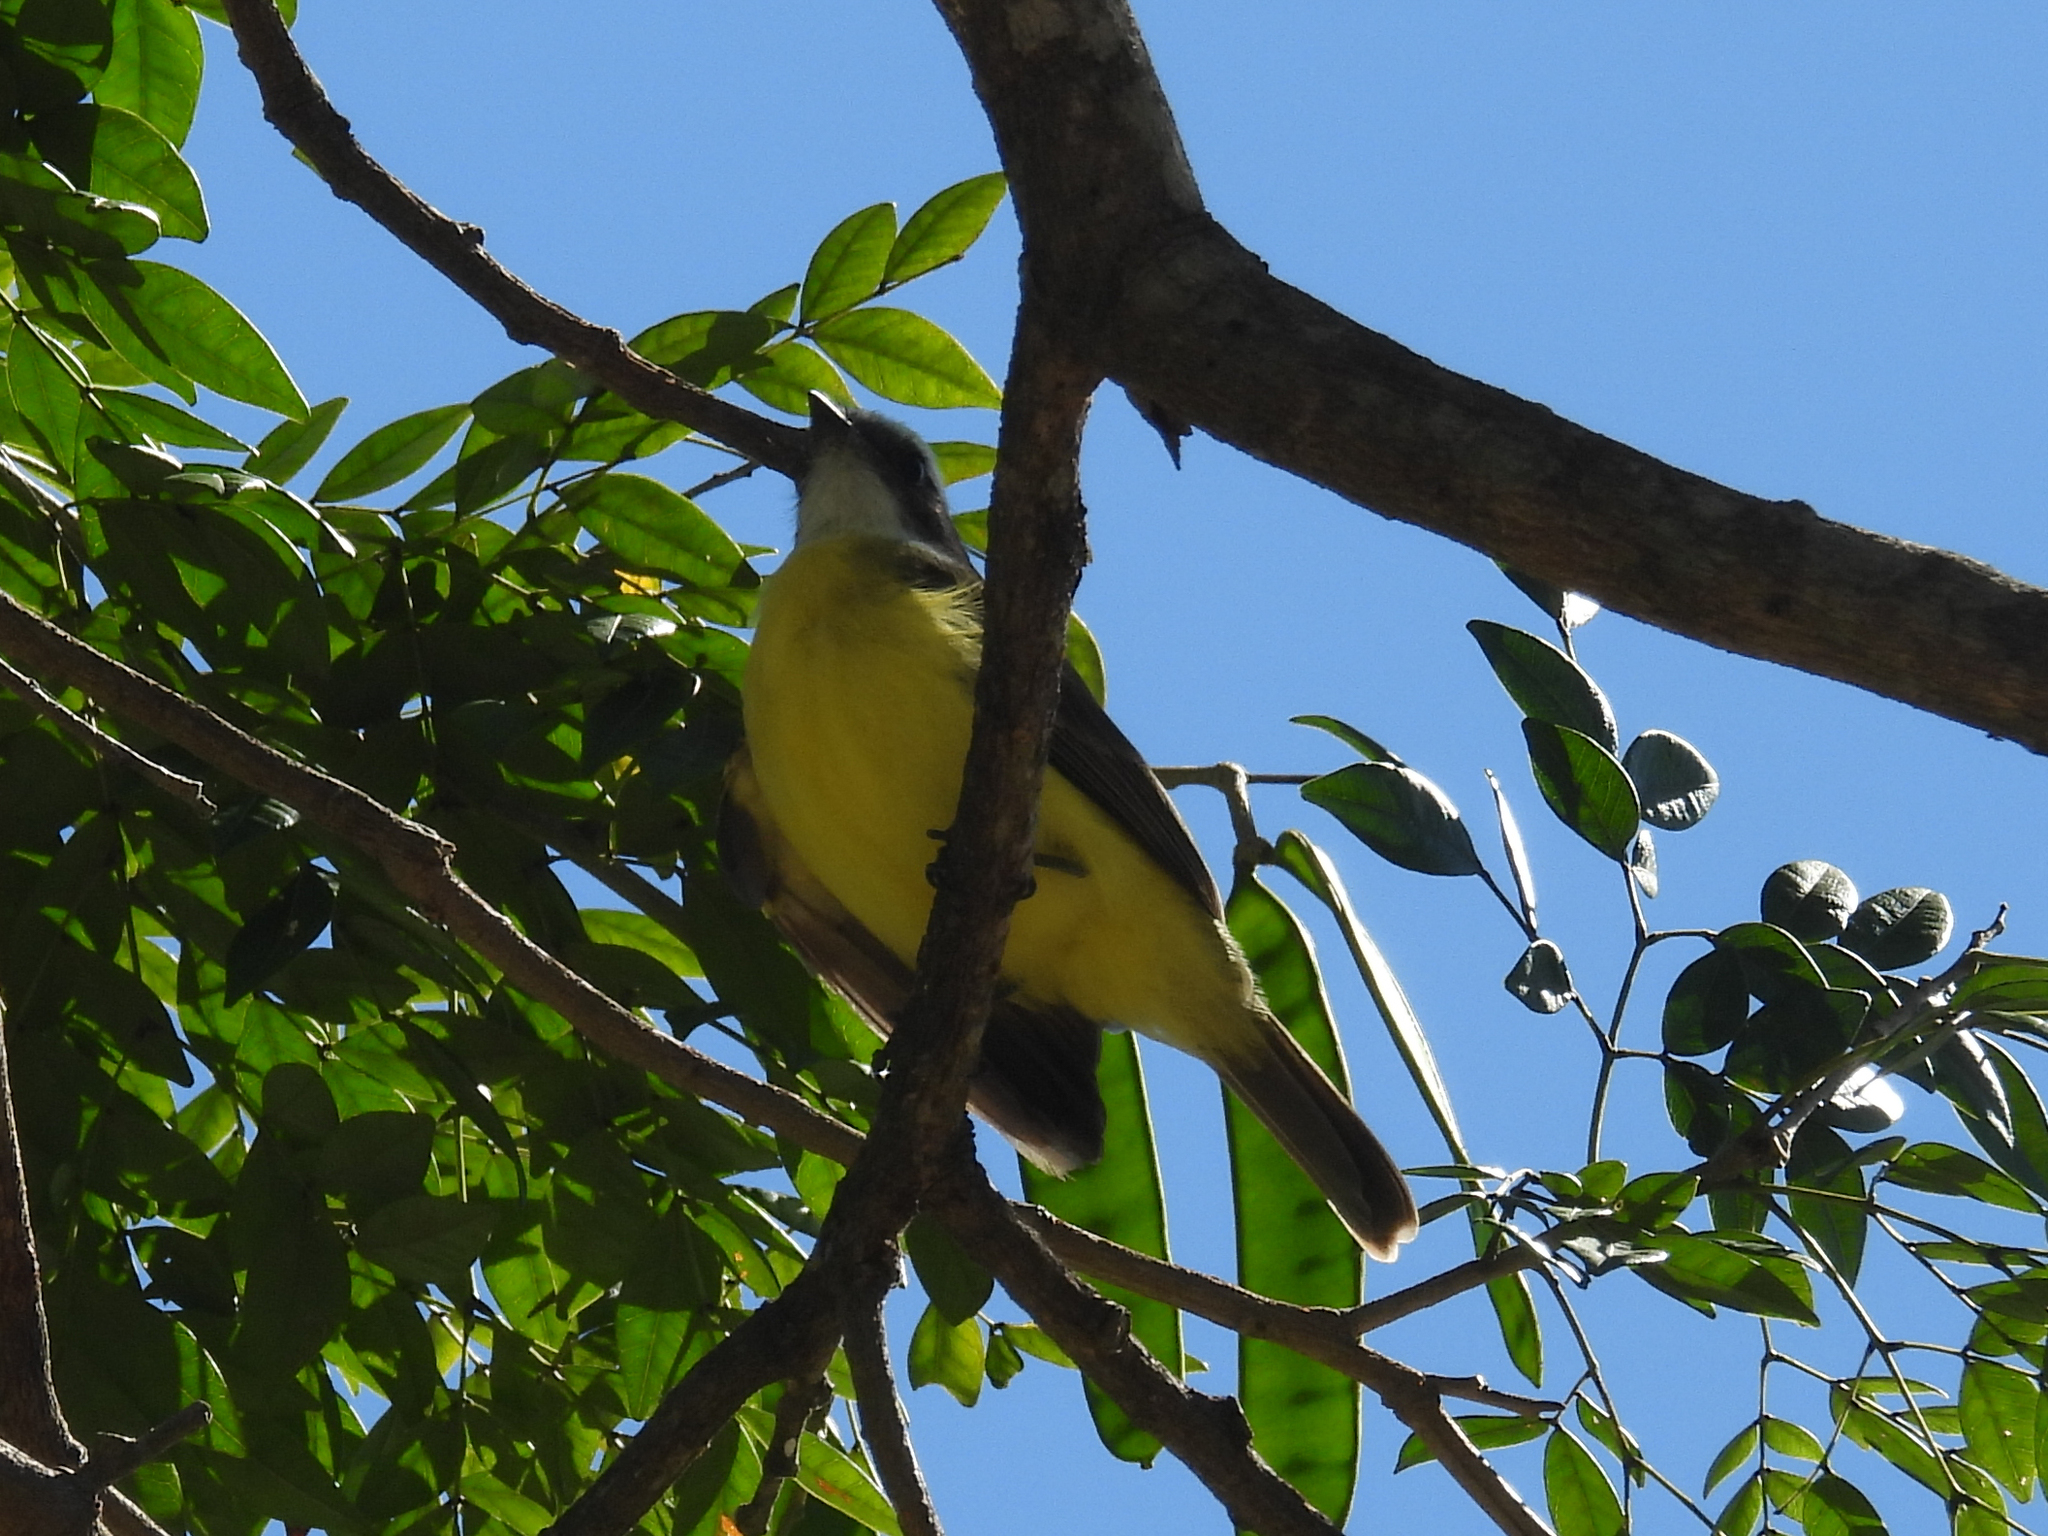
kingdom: Animalia
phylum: Chordata
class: Aves
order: Passeriformes
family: Tyrannidae
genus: Myiozetetes
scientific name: Myiozetetes similis
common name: Social flycatcher
